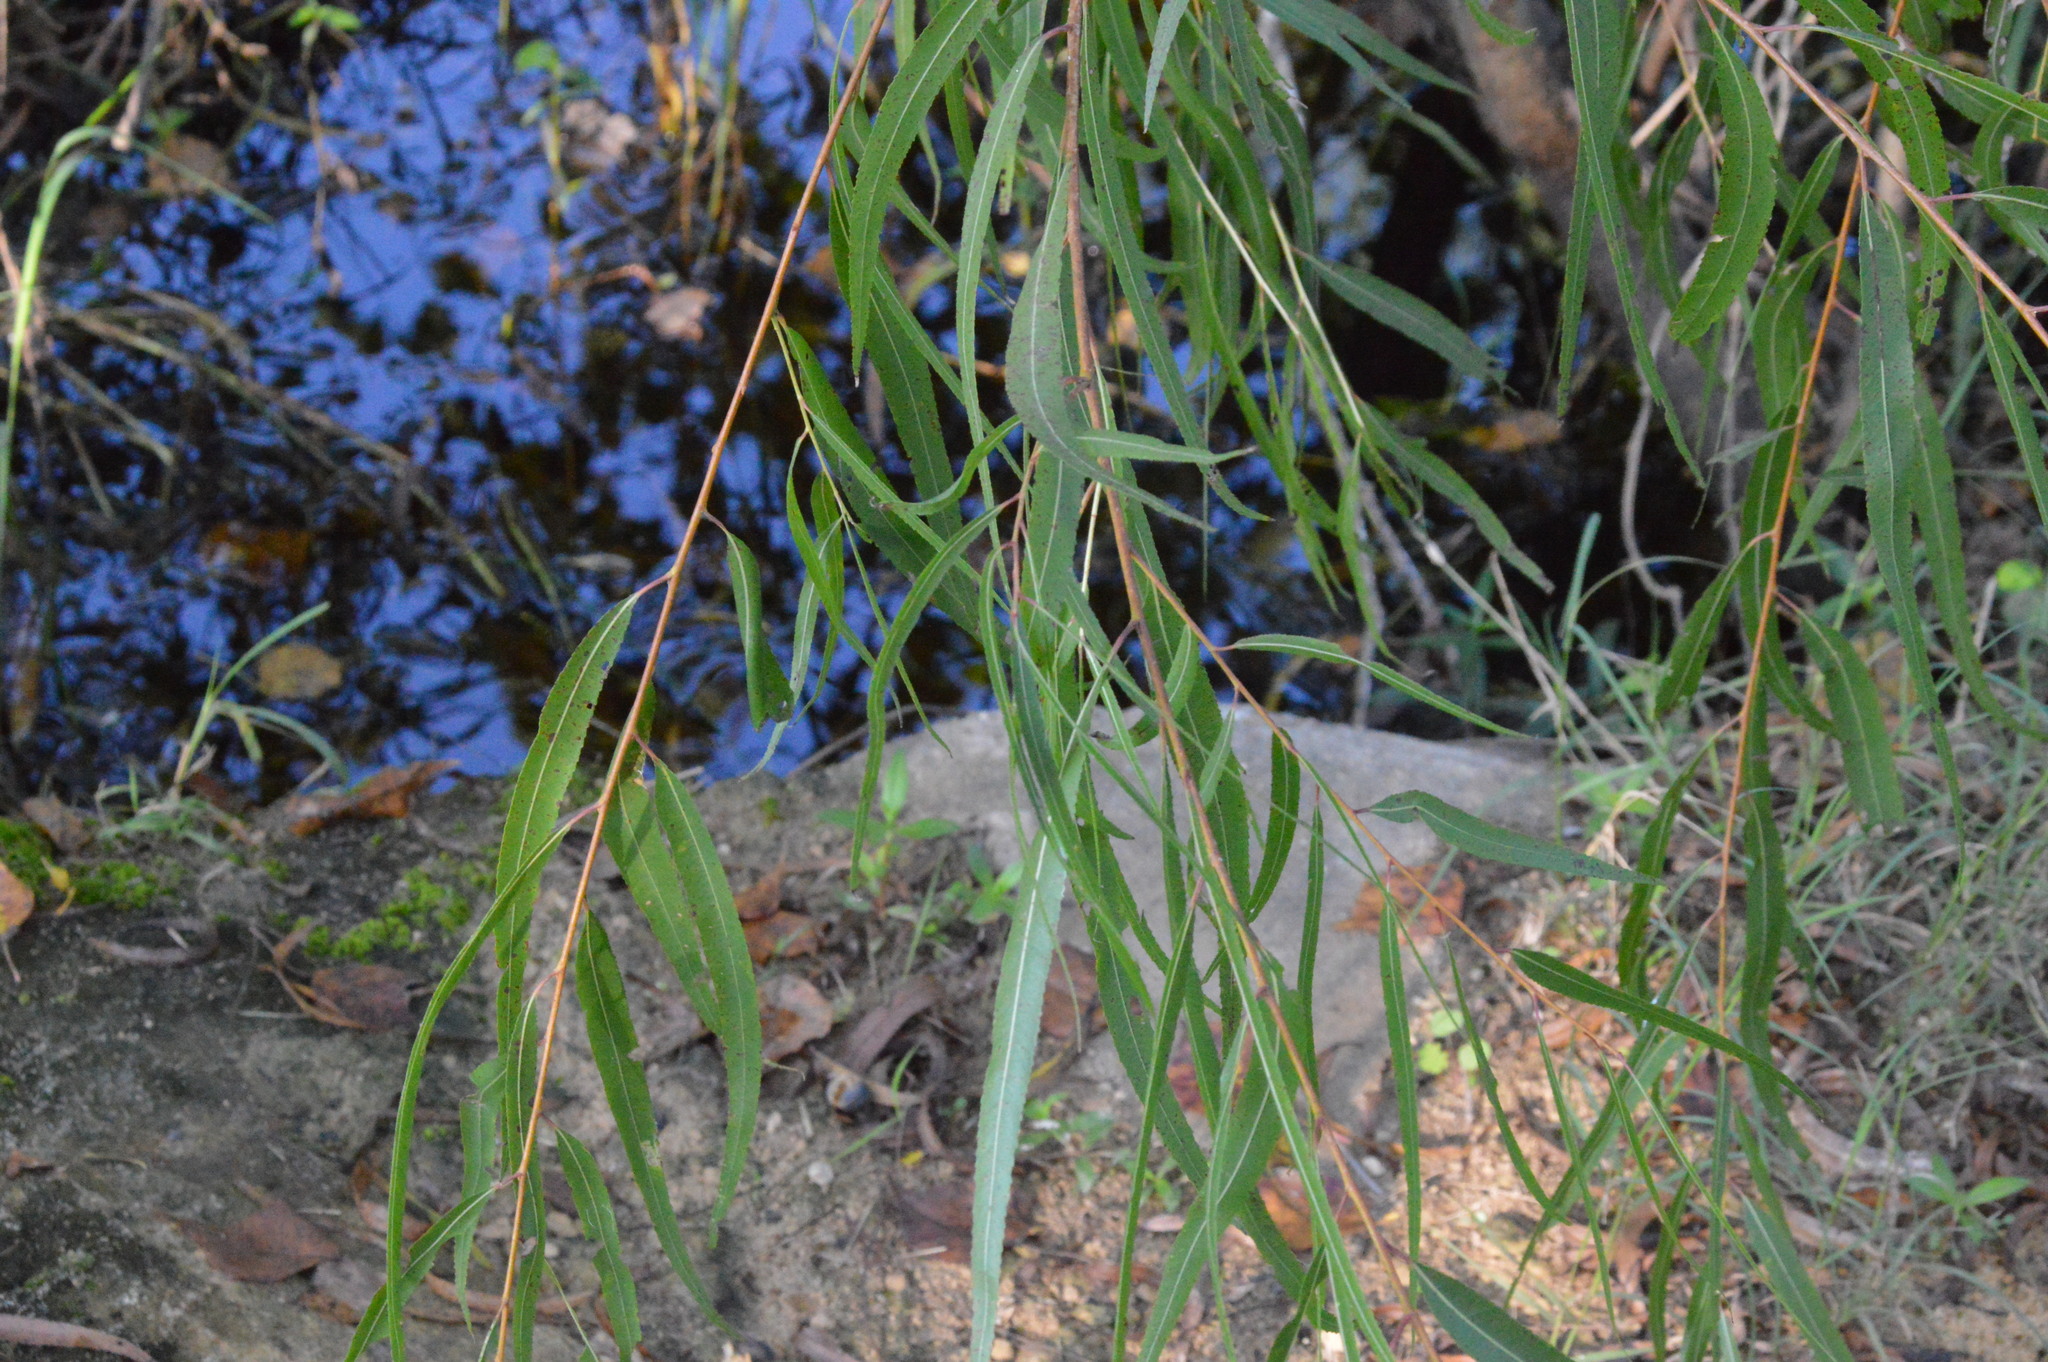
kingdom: Plantae
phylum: Tracheophyta
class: Magnoliopsida
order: Malpighiales
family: Salicaceae
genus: Salix
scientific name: Salix nigra
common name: Black willow
